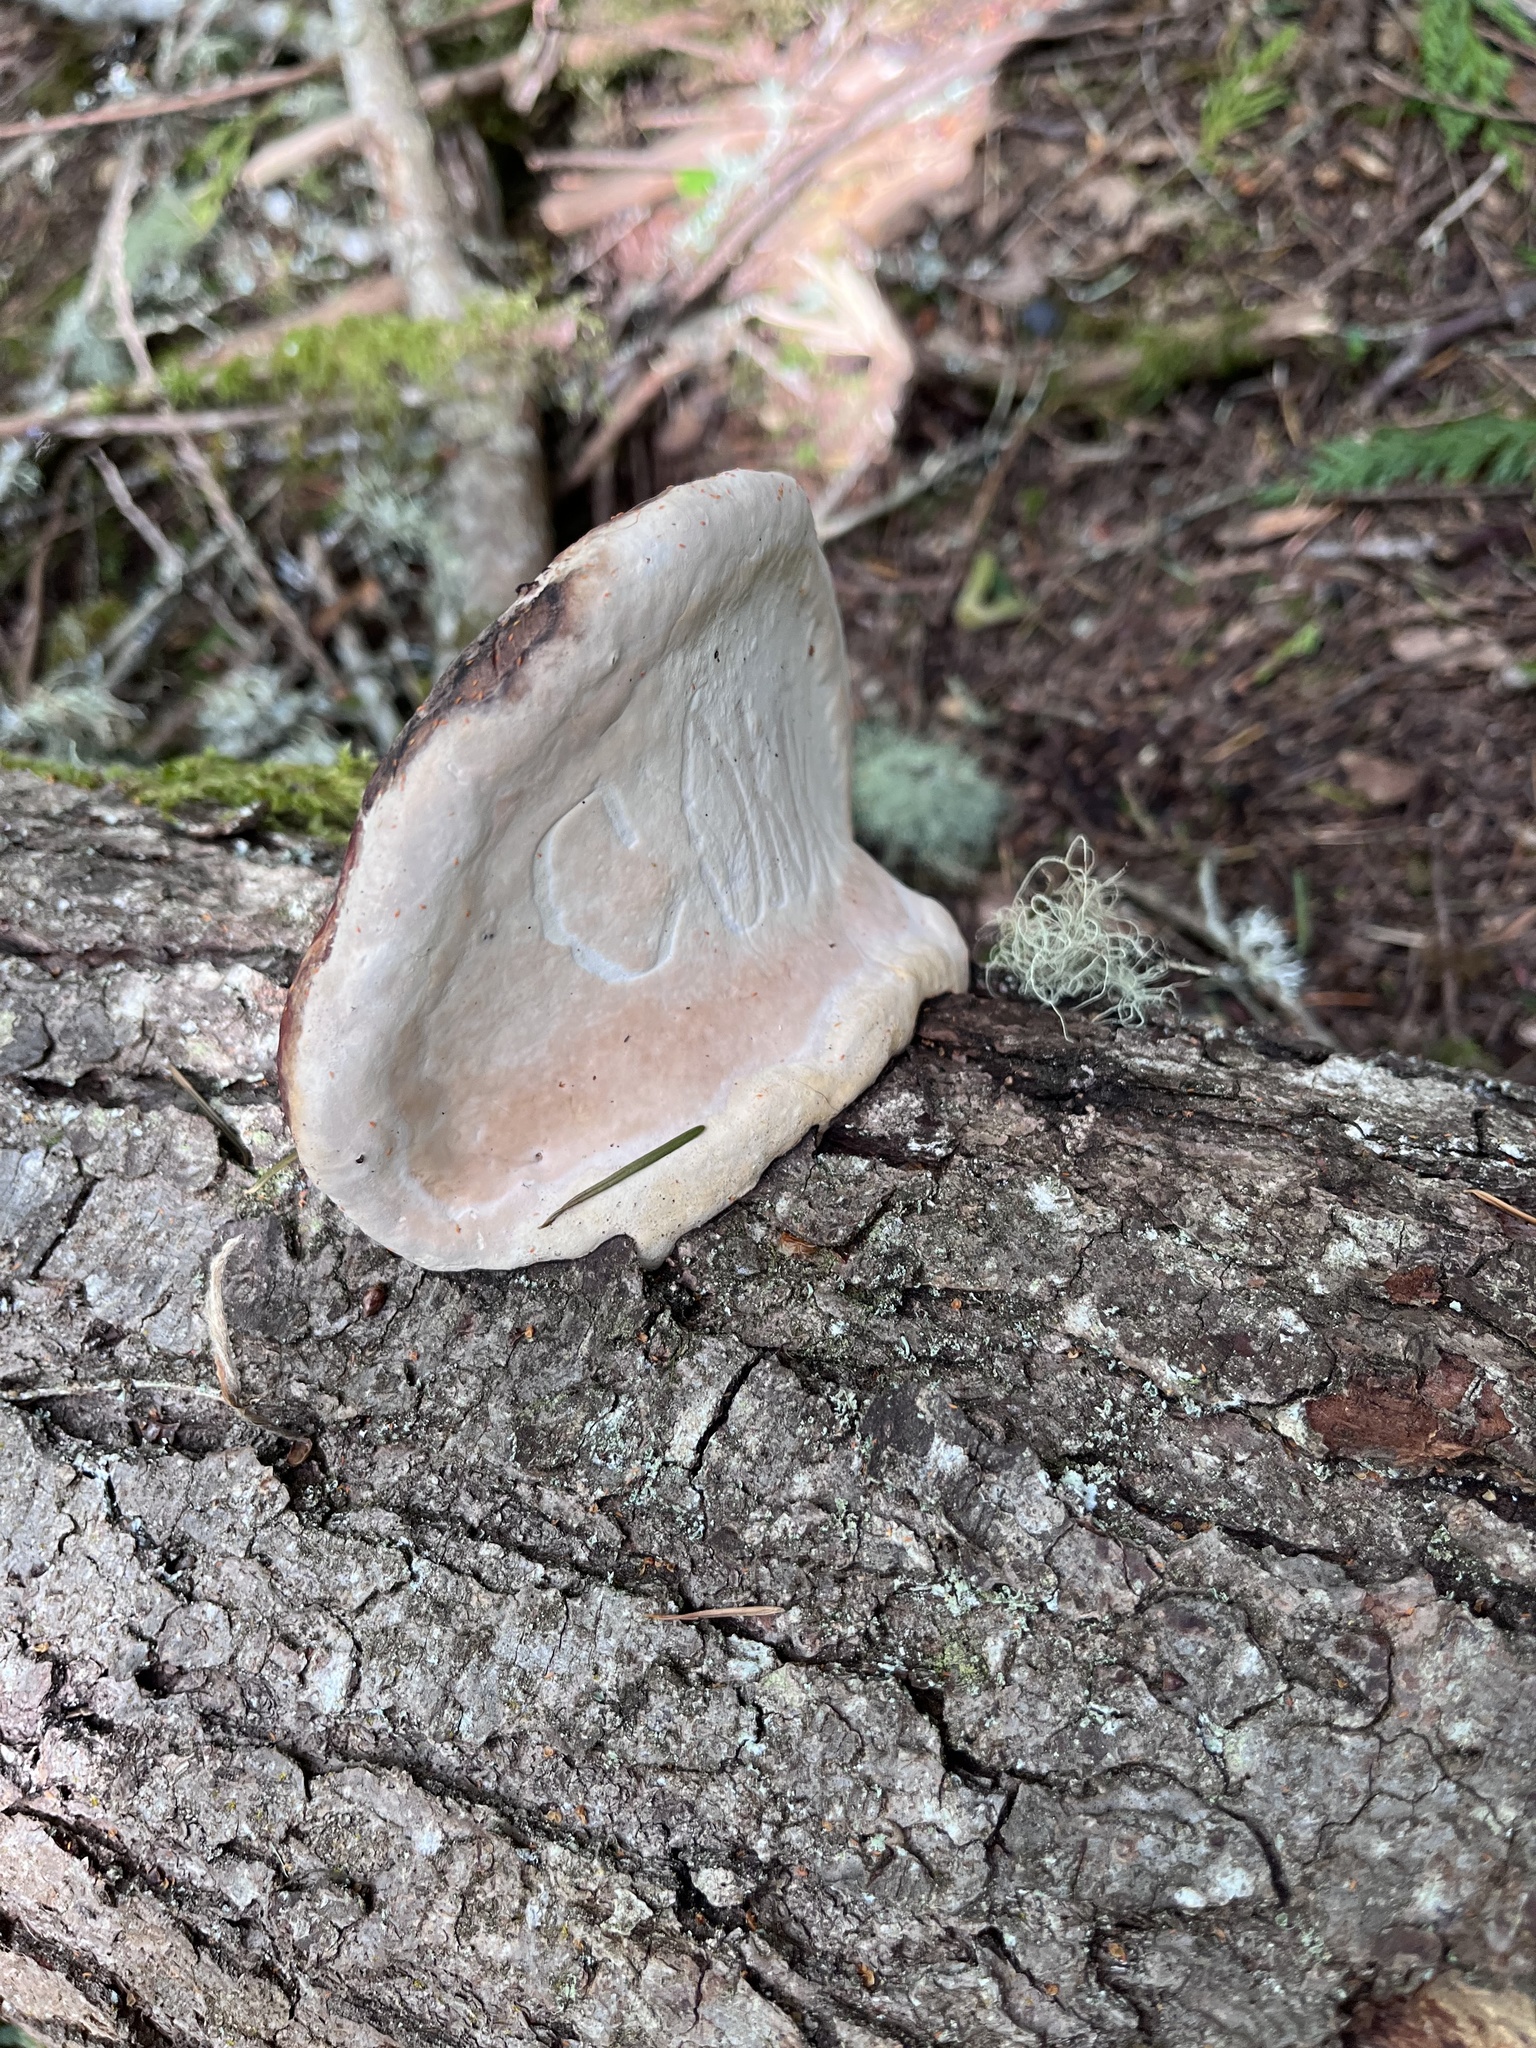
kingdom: Fungi
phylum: Basidiomycota
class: Agaricomycetes
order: Polyporales
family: Fomitopsidaceae
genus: Fomitopsis
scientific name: Fomitopsis mounceae
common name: Northern red belt
